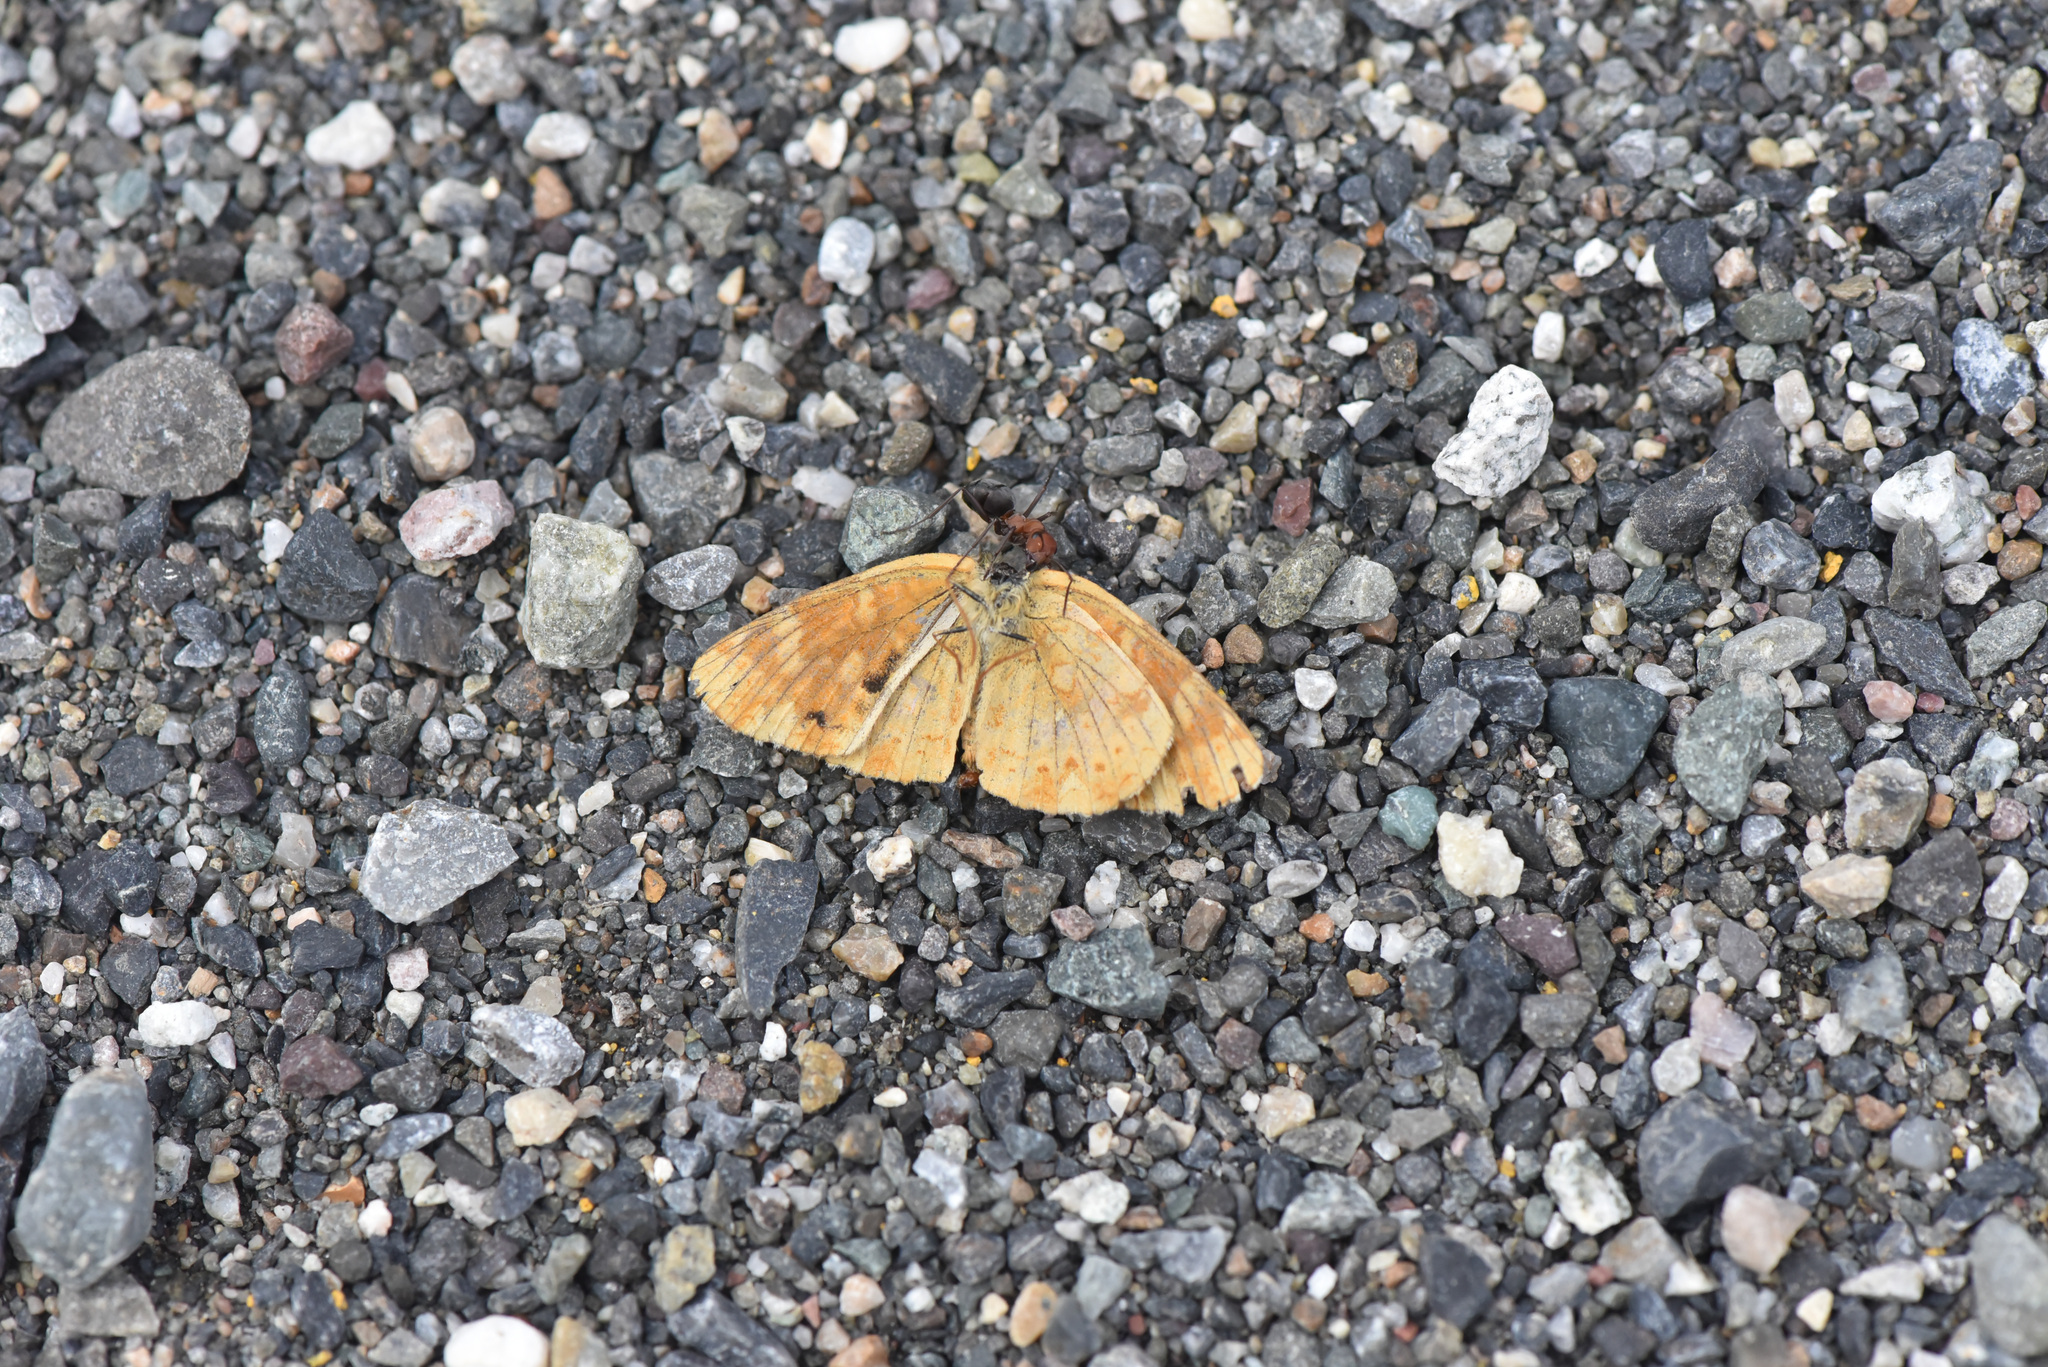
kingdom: Animalia
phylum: Arthropoda
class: Insecta
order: Lepidoptera
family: Nymphalidae
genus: Phyciodes
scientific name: Phyciodes tharos
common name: Pearl crescent
